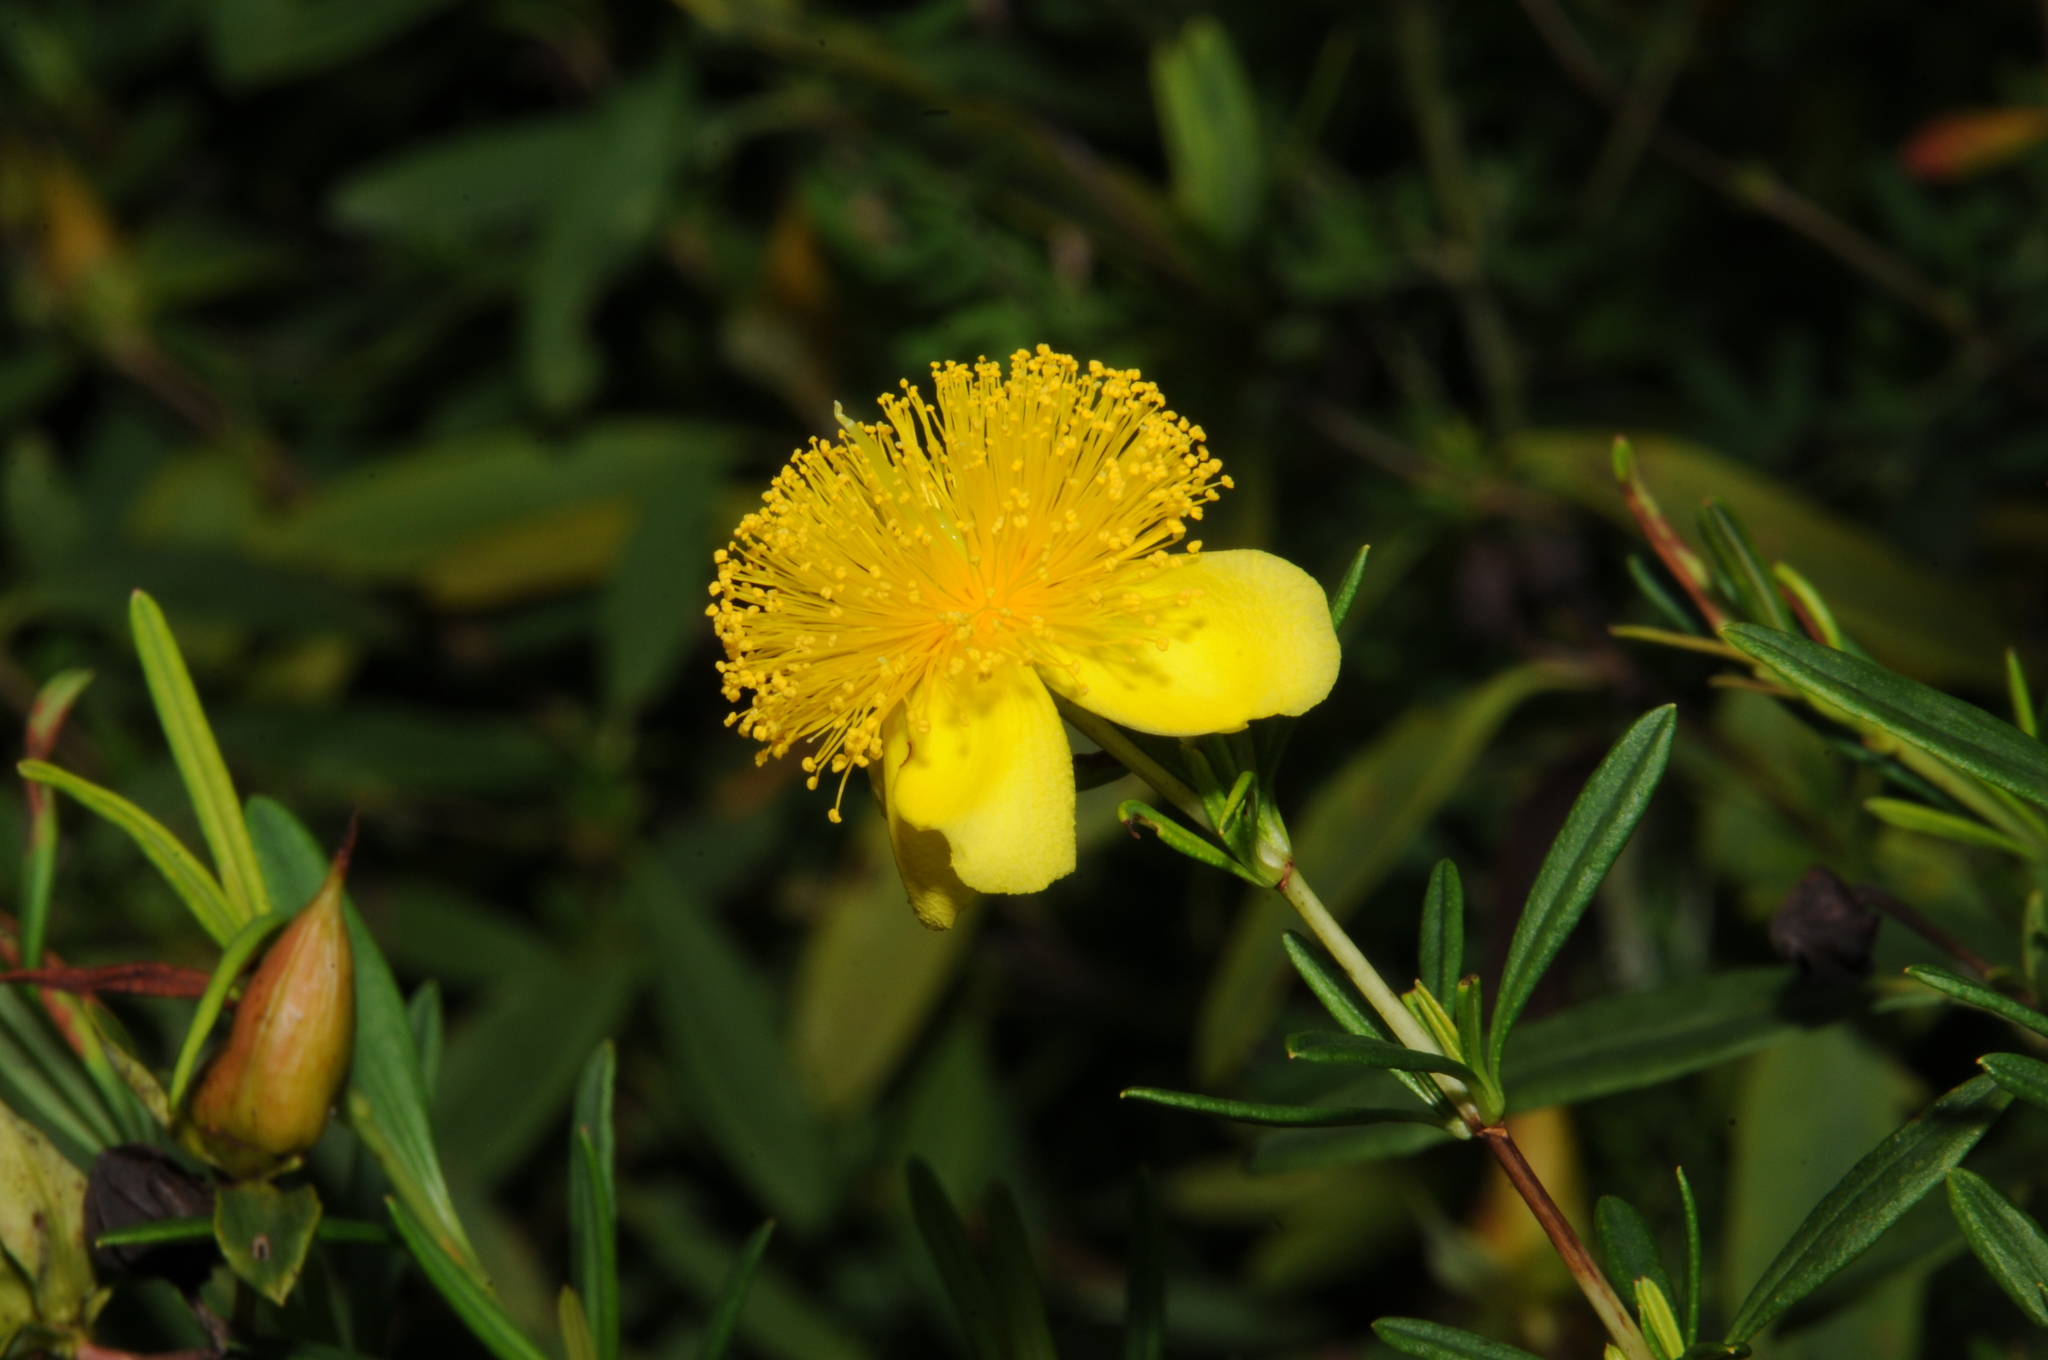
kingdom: Plantae
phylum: Tracheophyta
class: Magnoliopsida
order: Malpighiales
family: Hypericaceae
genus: Hypericum
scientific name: Hypericum frondosum
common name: Golden st. john's-wort
